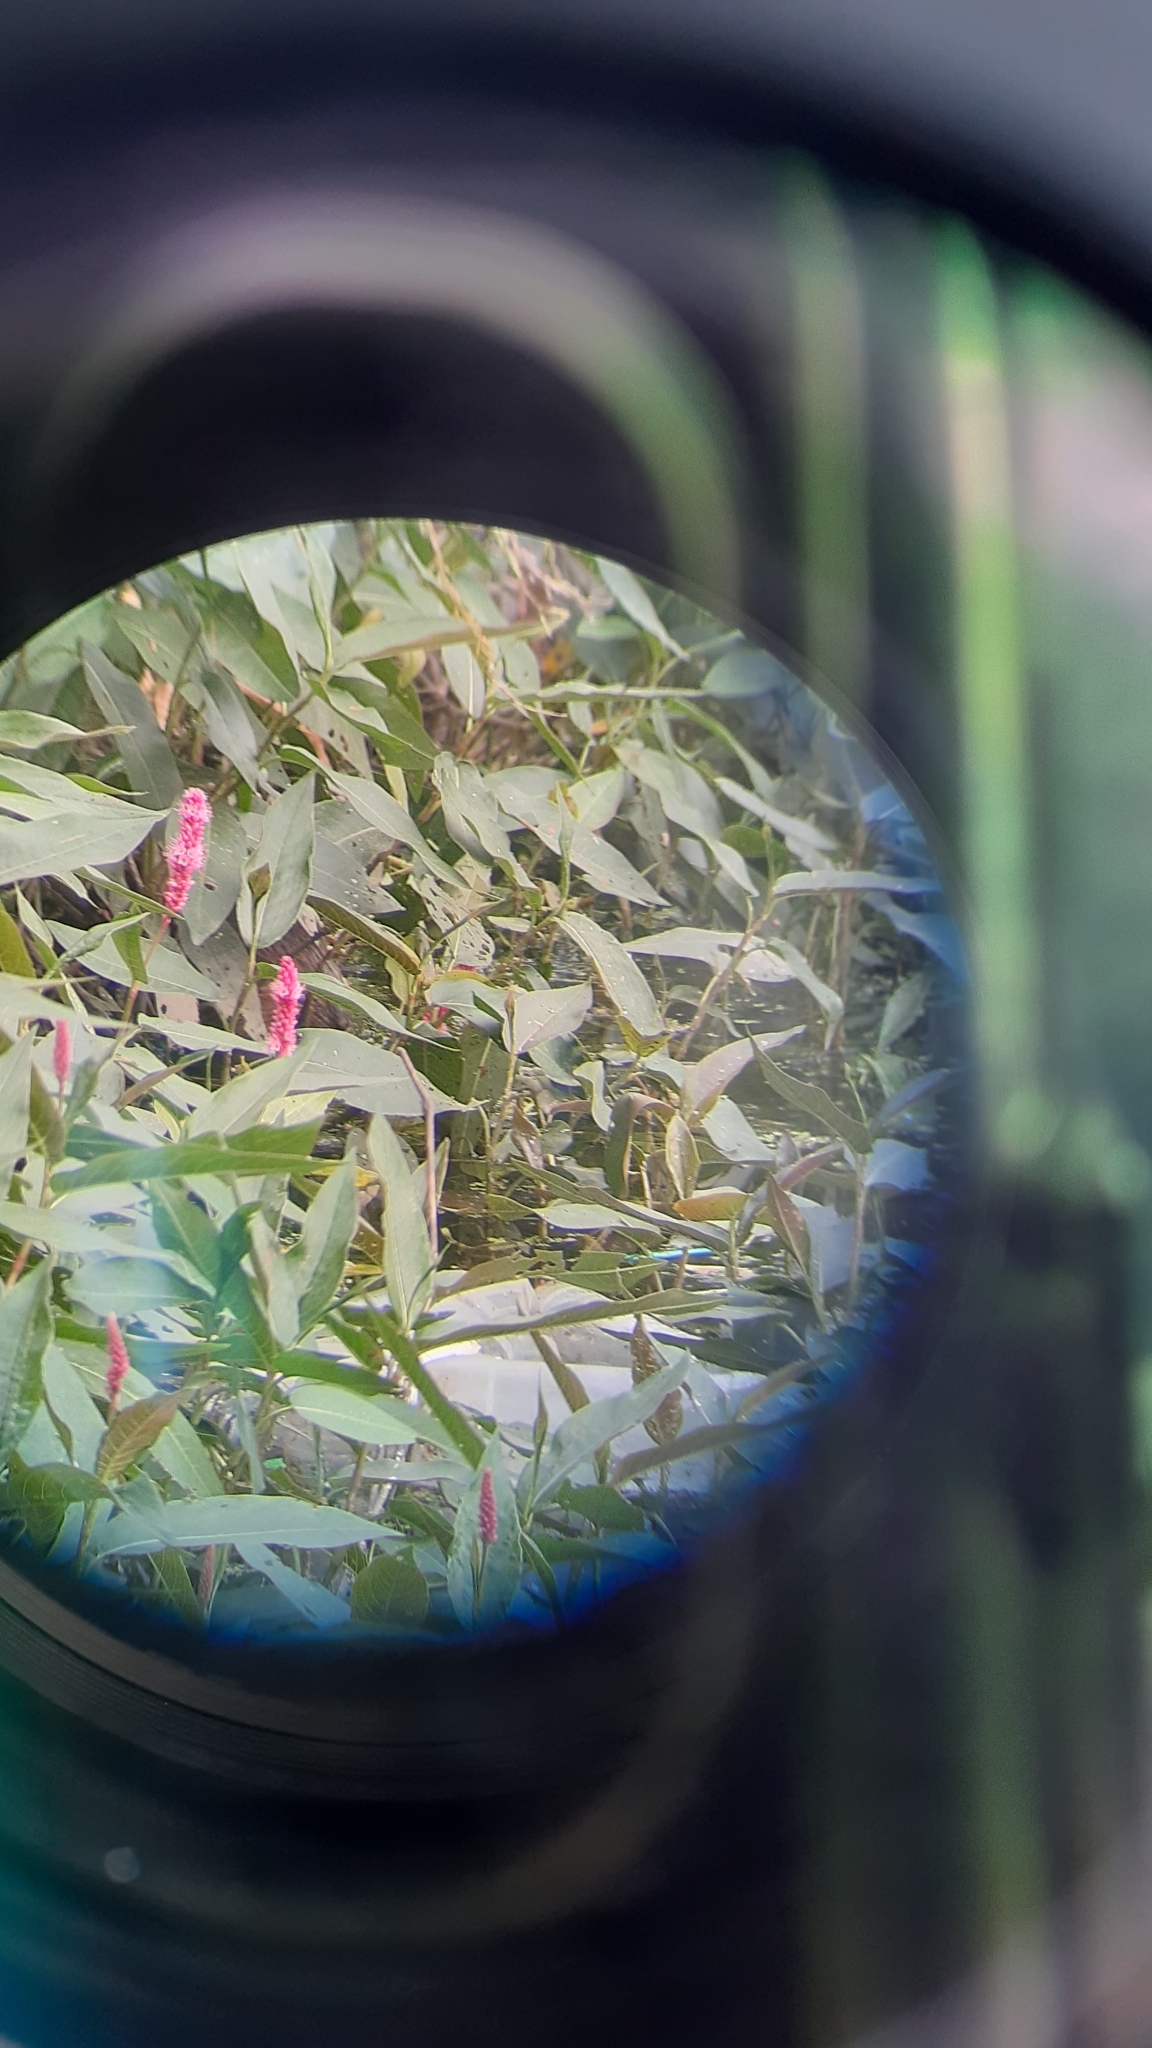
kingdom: Plantae
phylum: Tracheophyta
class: Magnoliopsida
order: Caryophyllales
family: Polygonaceae
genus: Persicaria
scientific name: Persicaria amphibia
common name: Amphibious bistort
